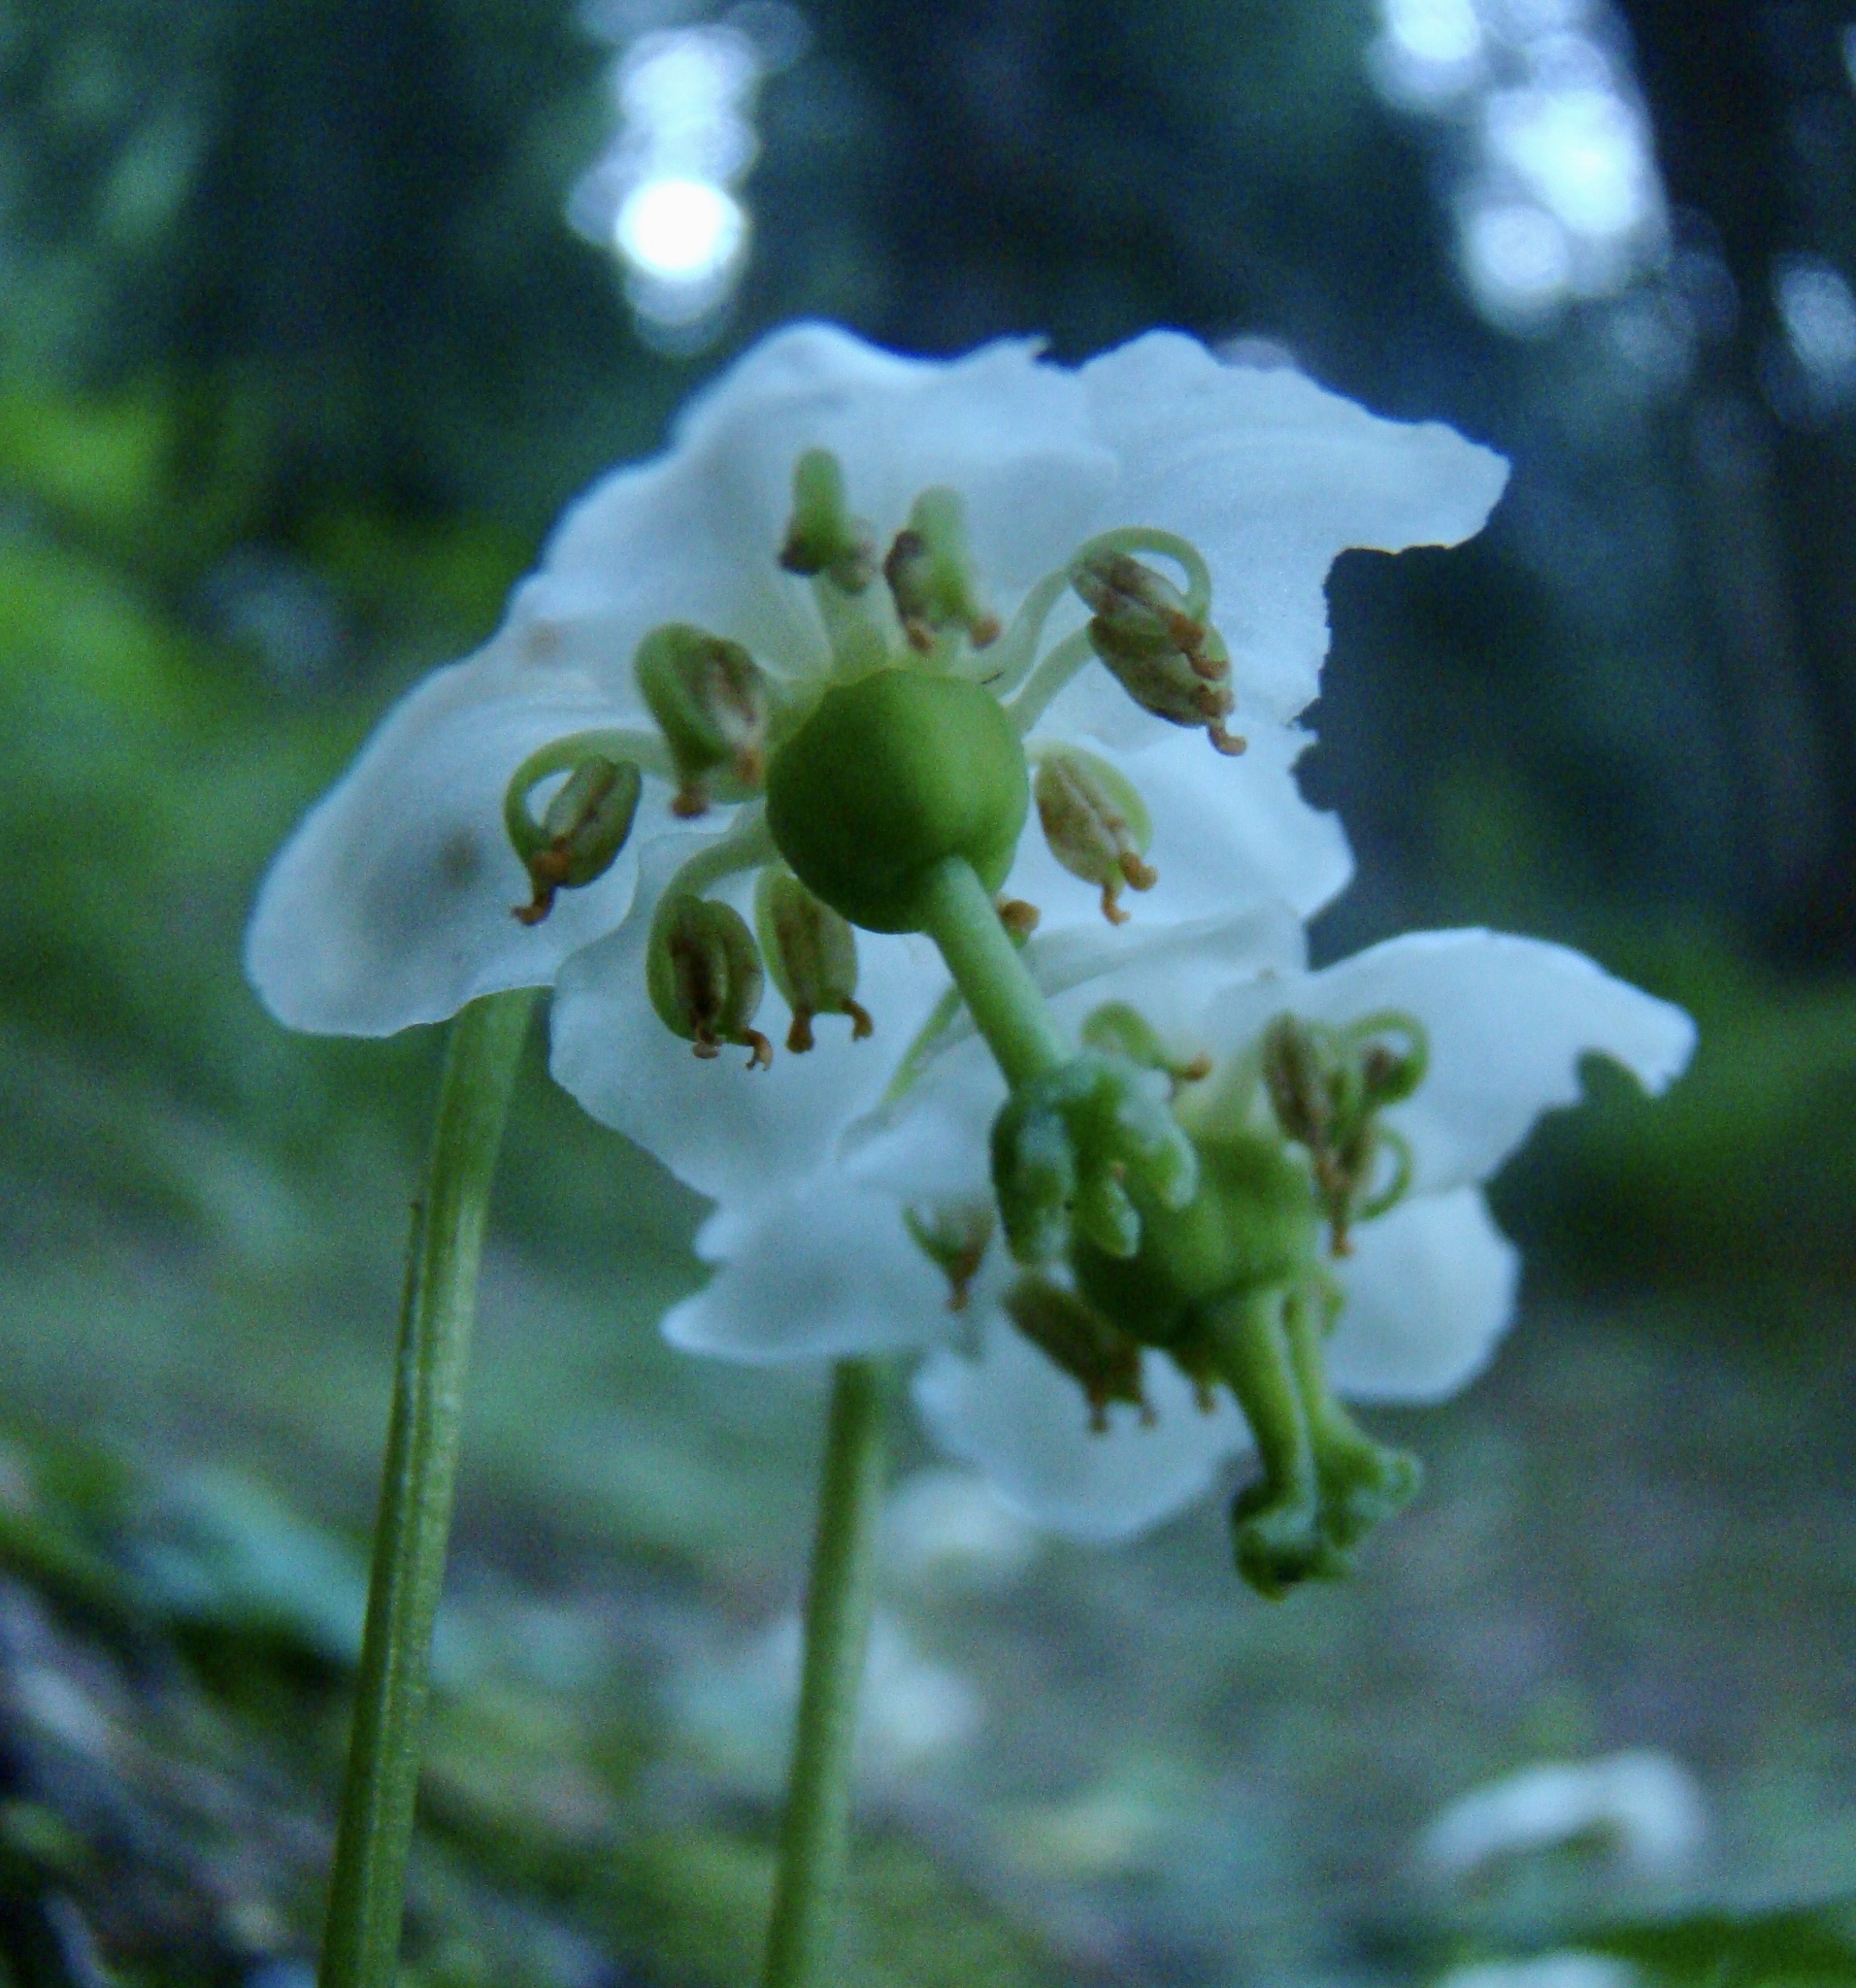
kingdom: Plantae
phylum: Tracheophyta
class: Magnoliopsida
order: Ericales
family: Ericaceae
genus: Moneses
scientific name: Moneses uniflora
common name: One-flowered wintergreen
